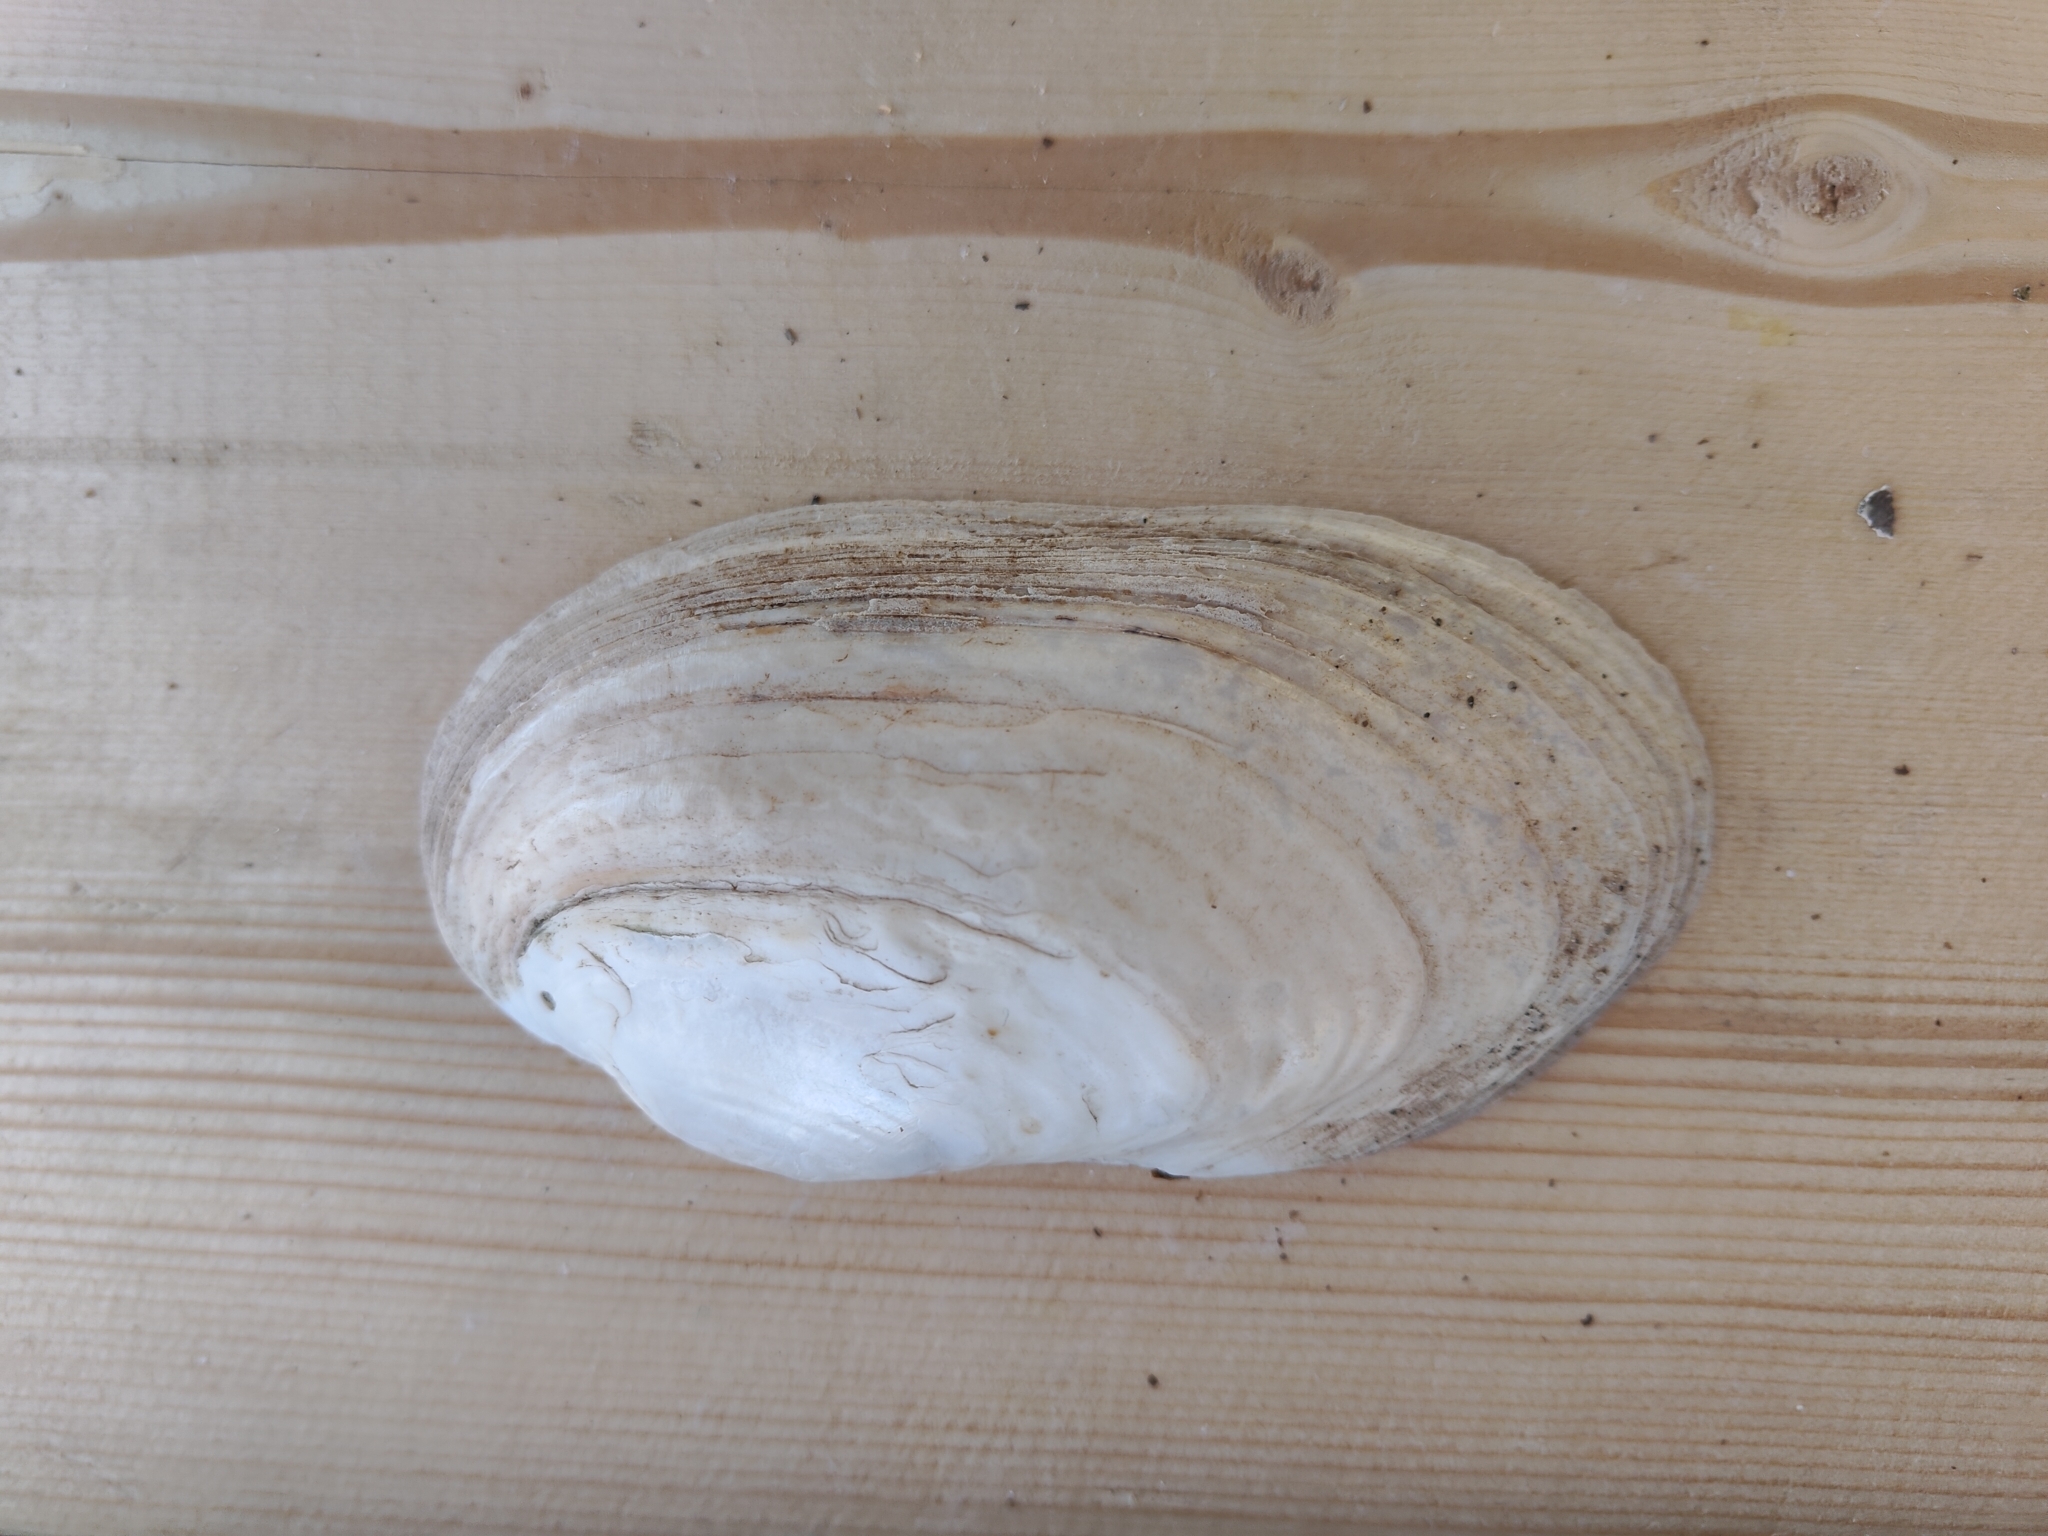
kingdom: Animalia
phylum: Mollusca
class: Bivalvia
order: Unionida
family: Unionidae
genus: Lampsilis
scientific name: Lampsilis siliquoidea
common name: Fatmucket
